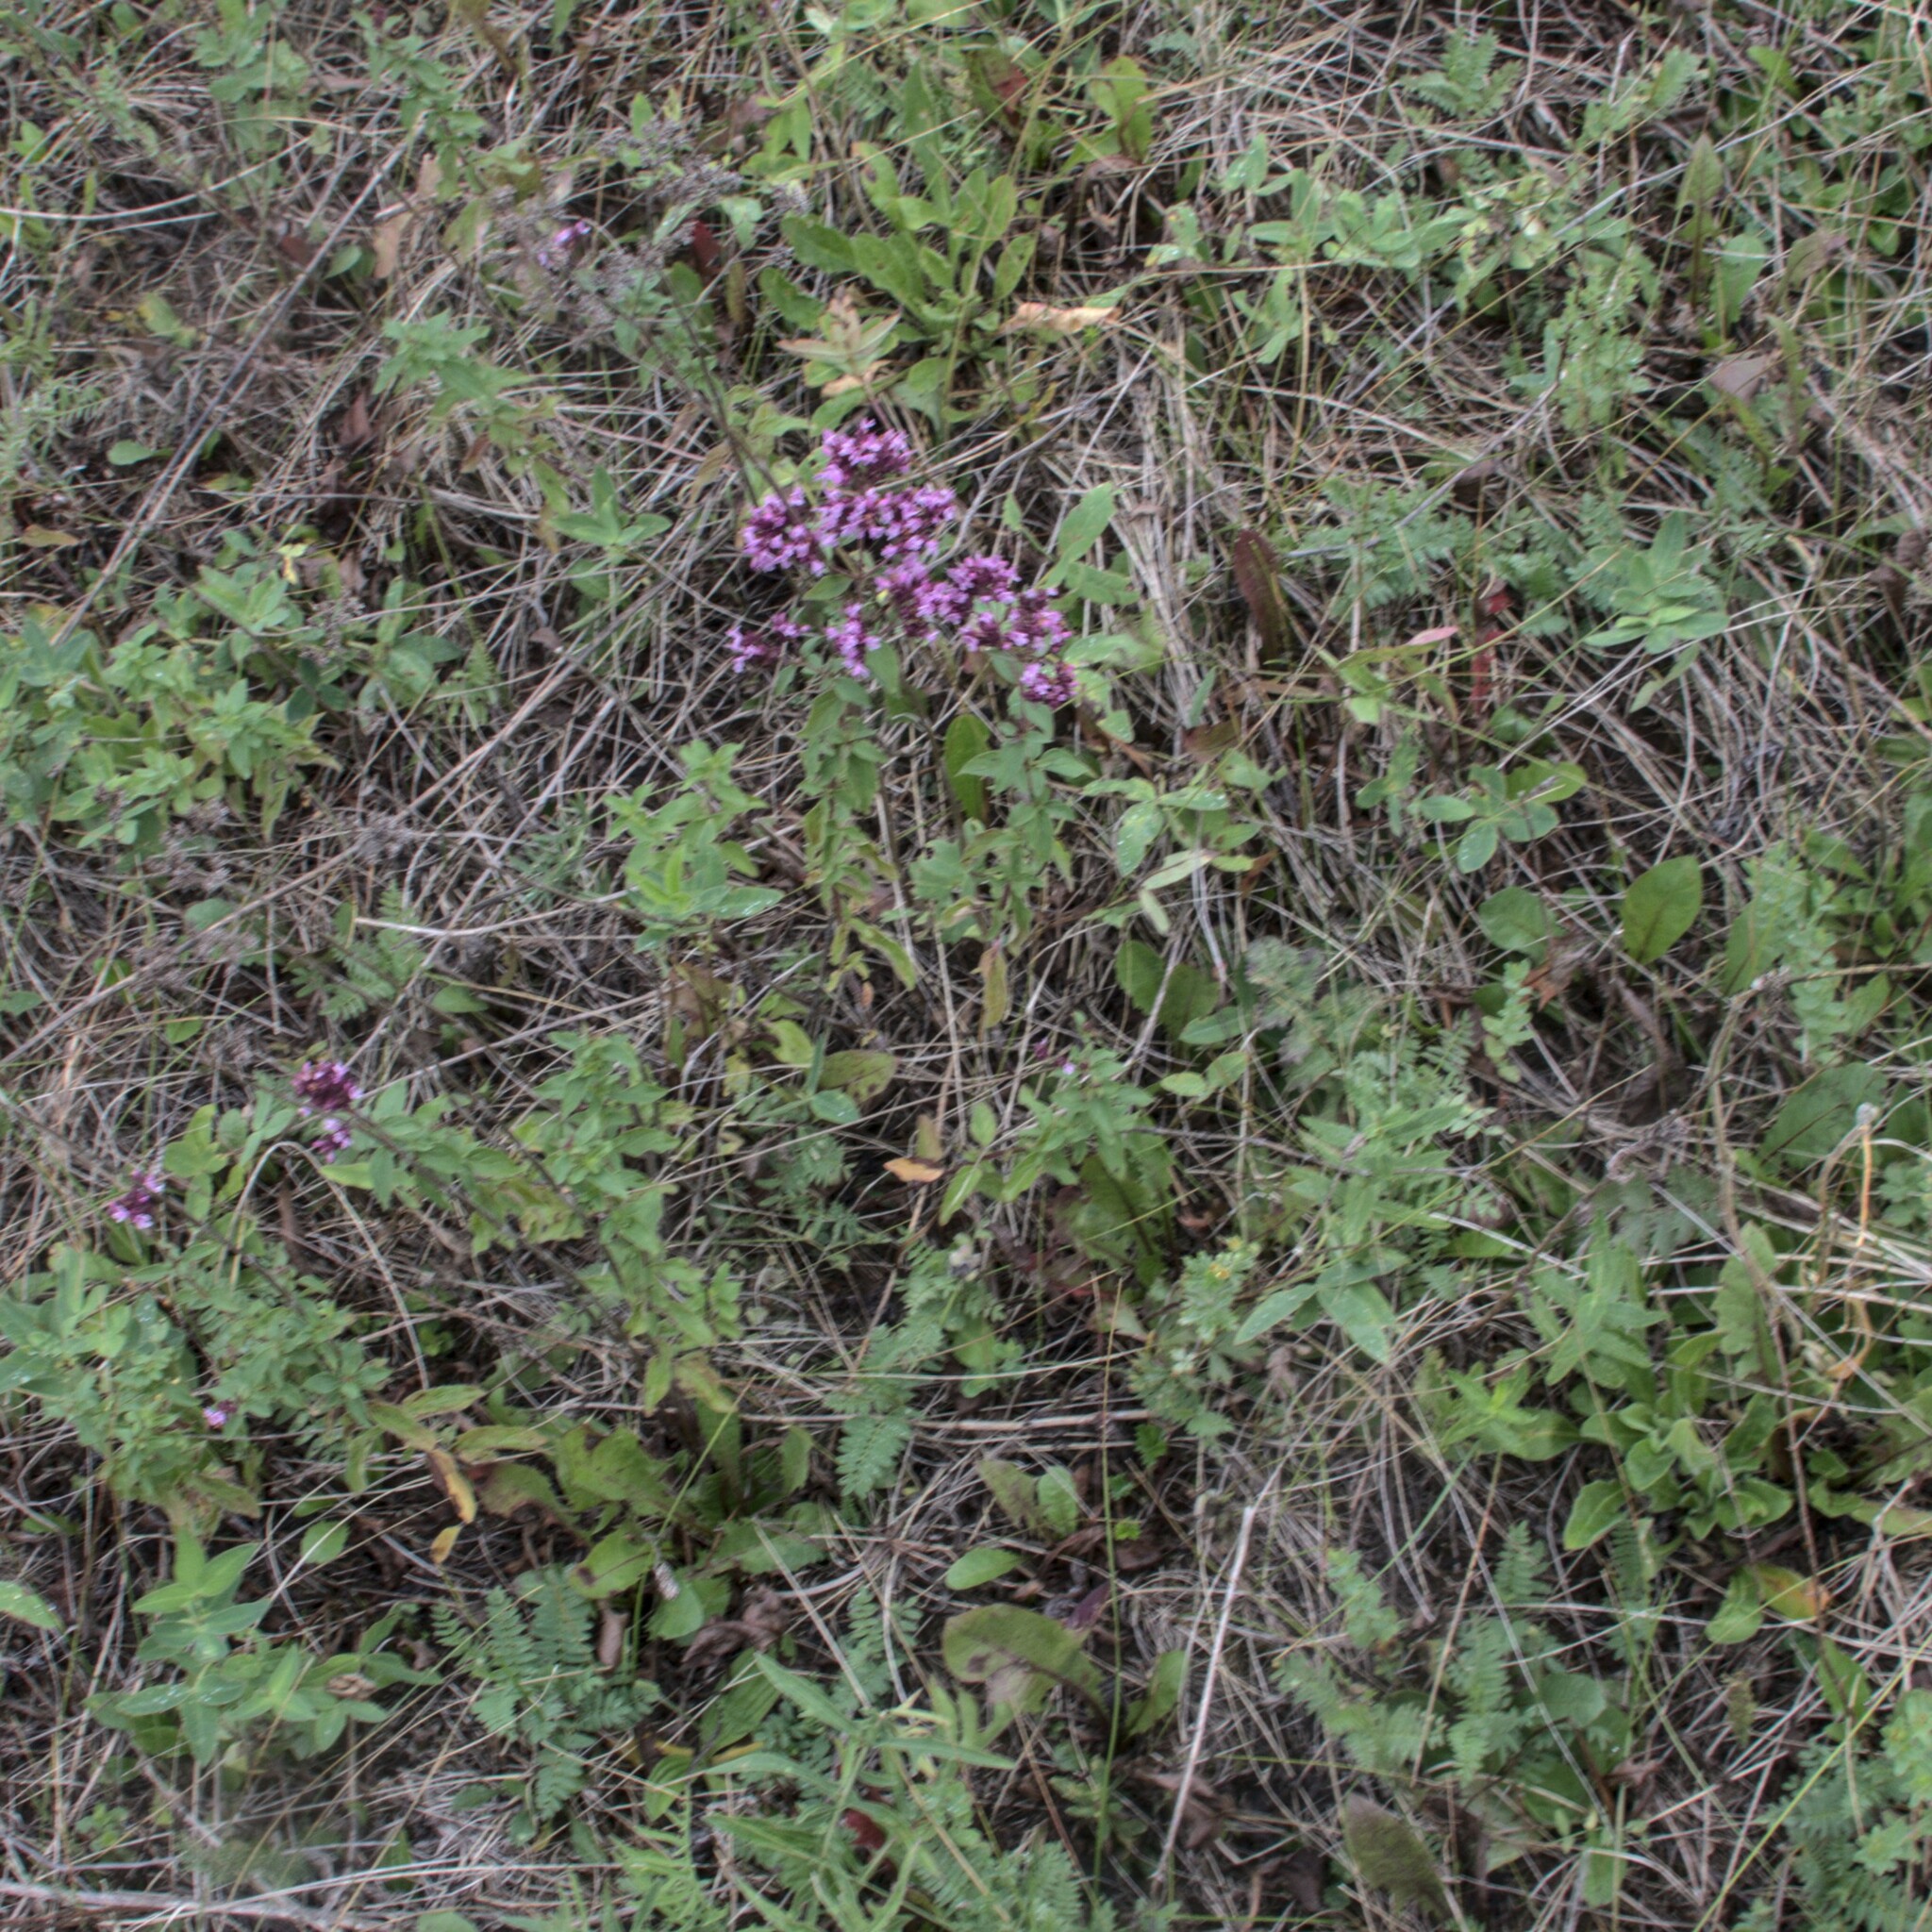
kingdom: Plantae
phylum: Tracheophyta
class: Magnoliopsida
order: Lamiales
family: Lamiaceae
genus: Origanum
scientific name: Origanum vulgare
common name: Wild marjoram
